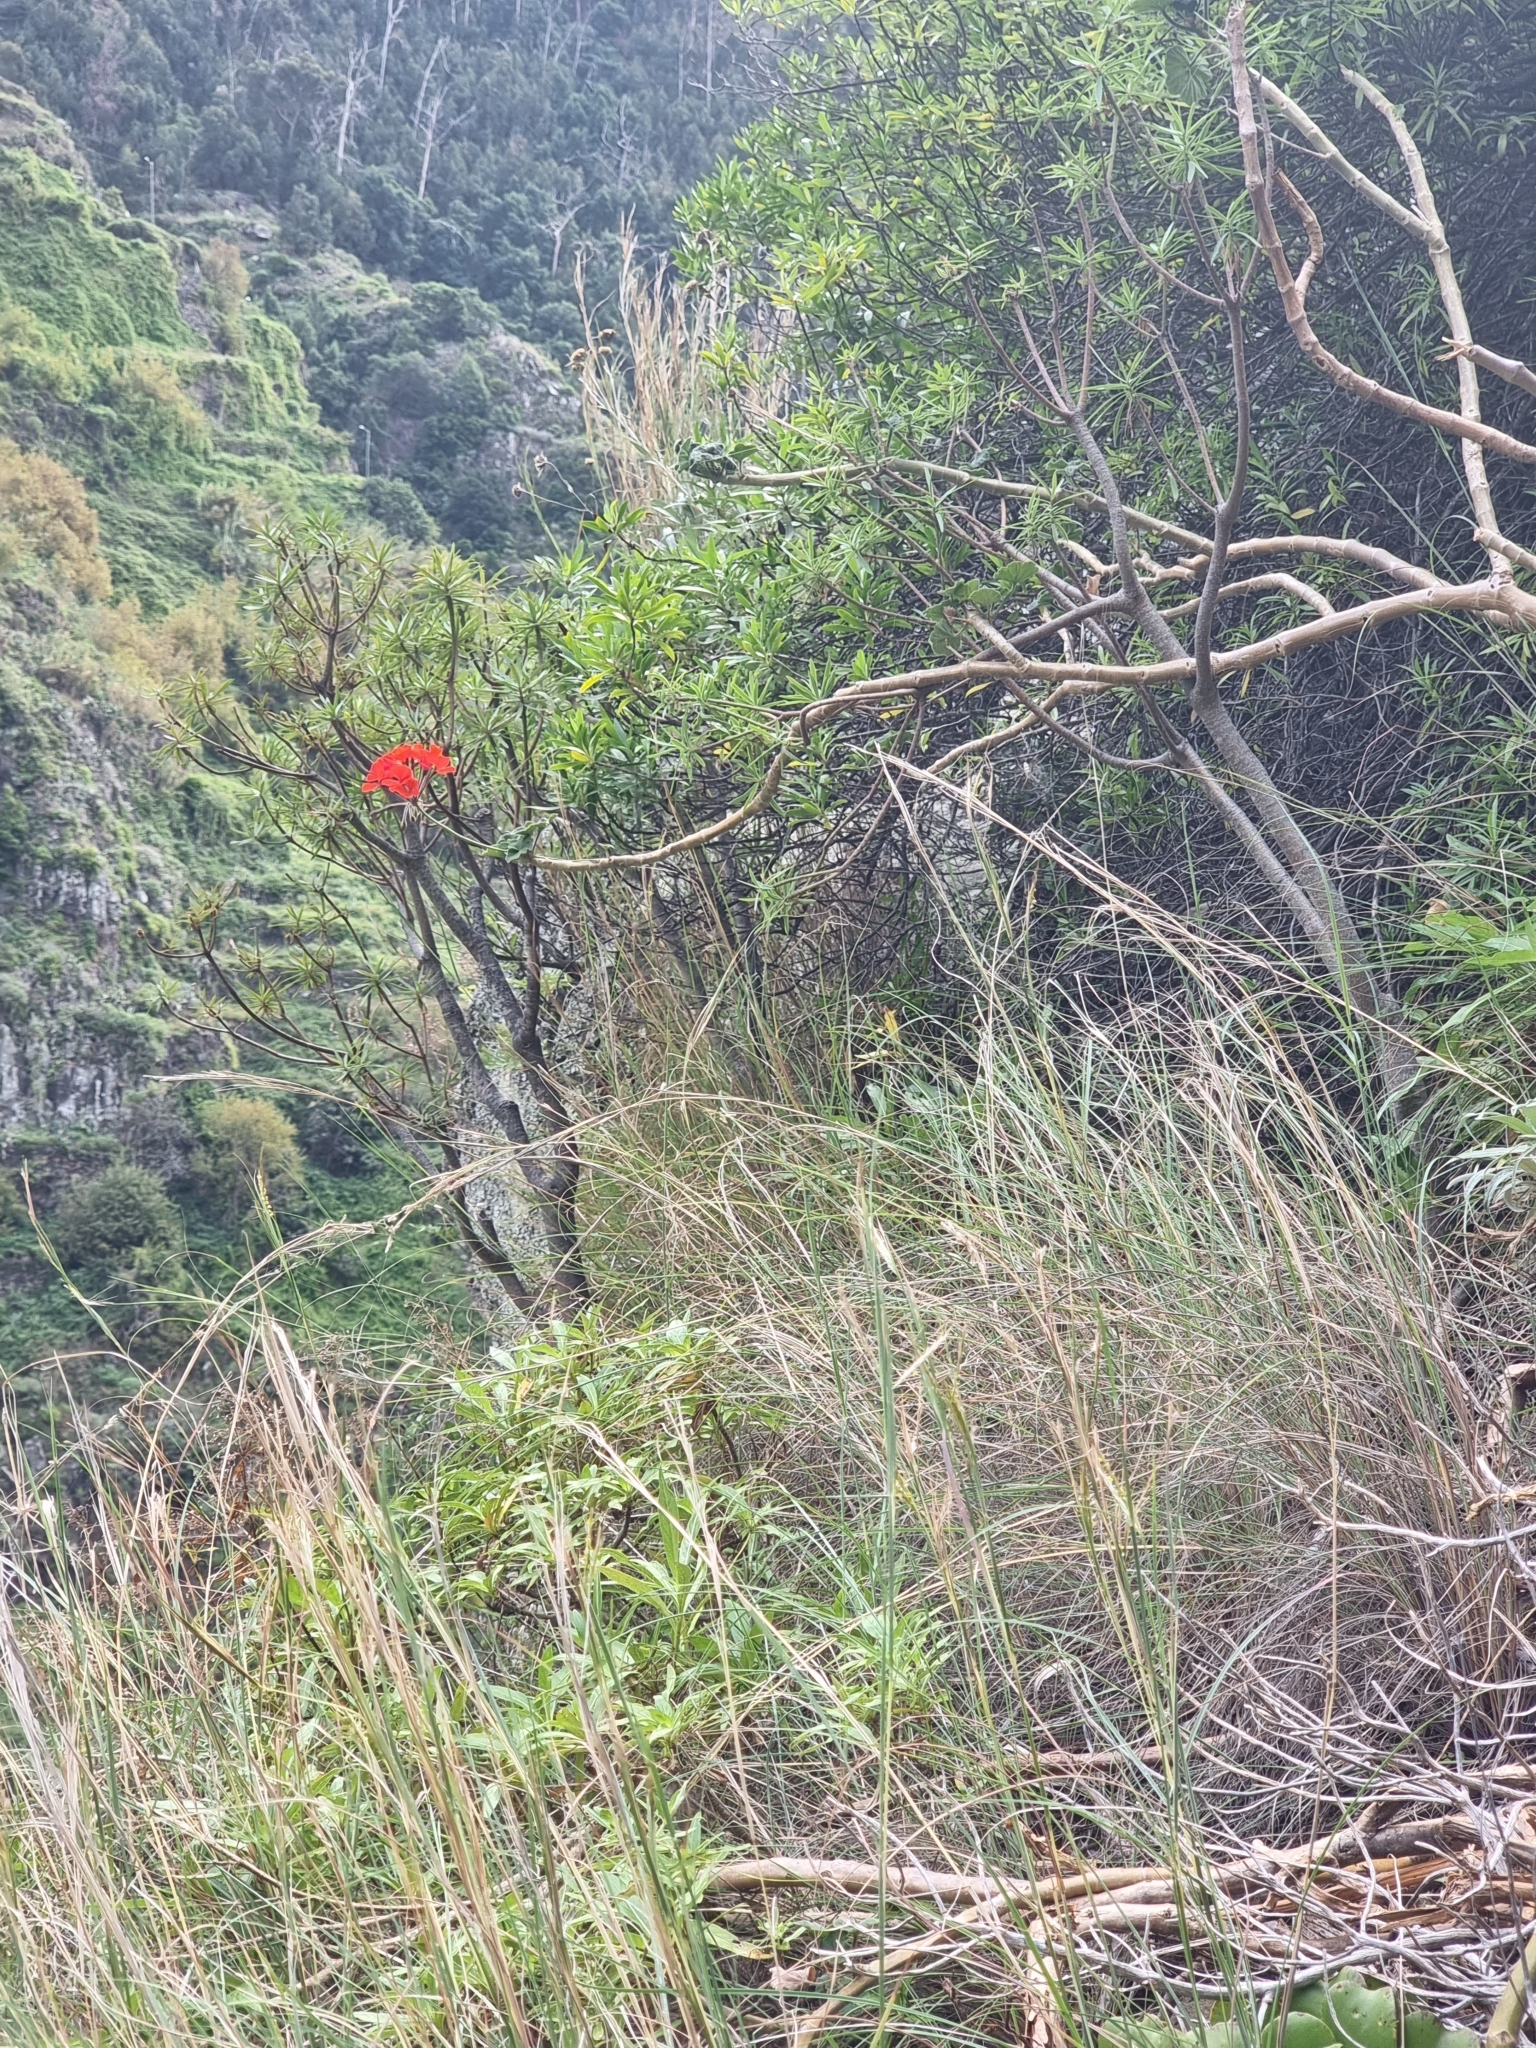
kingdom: Plantae
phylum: Tracheophyta
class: Magnoliopsida
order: Geraniales
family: Geraniaceae
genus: Pelargonium
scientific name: Pelargonium hybridum
